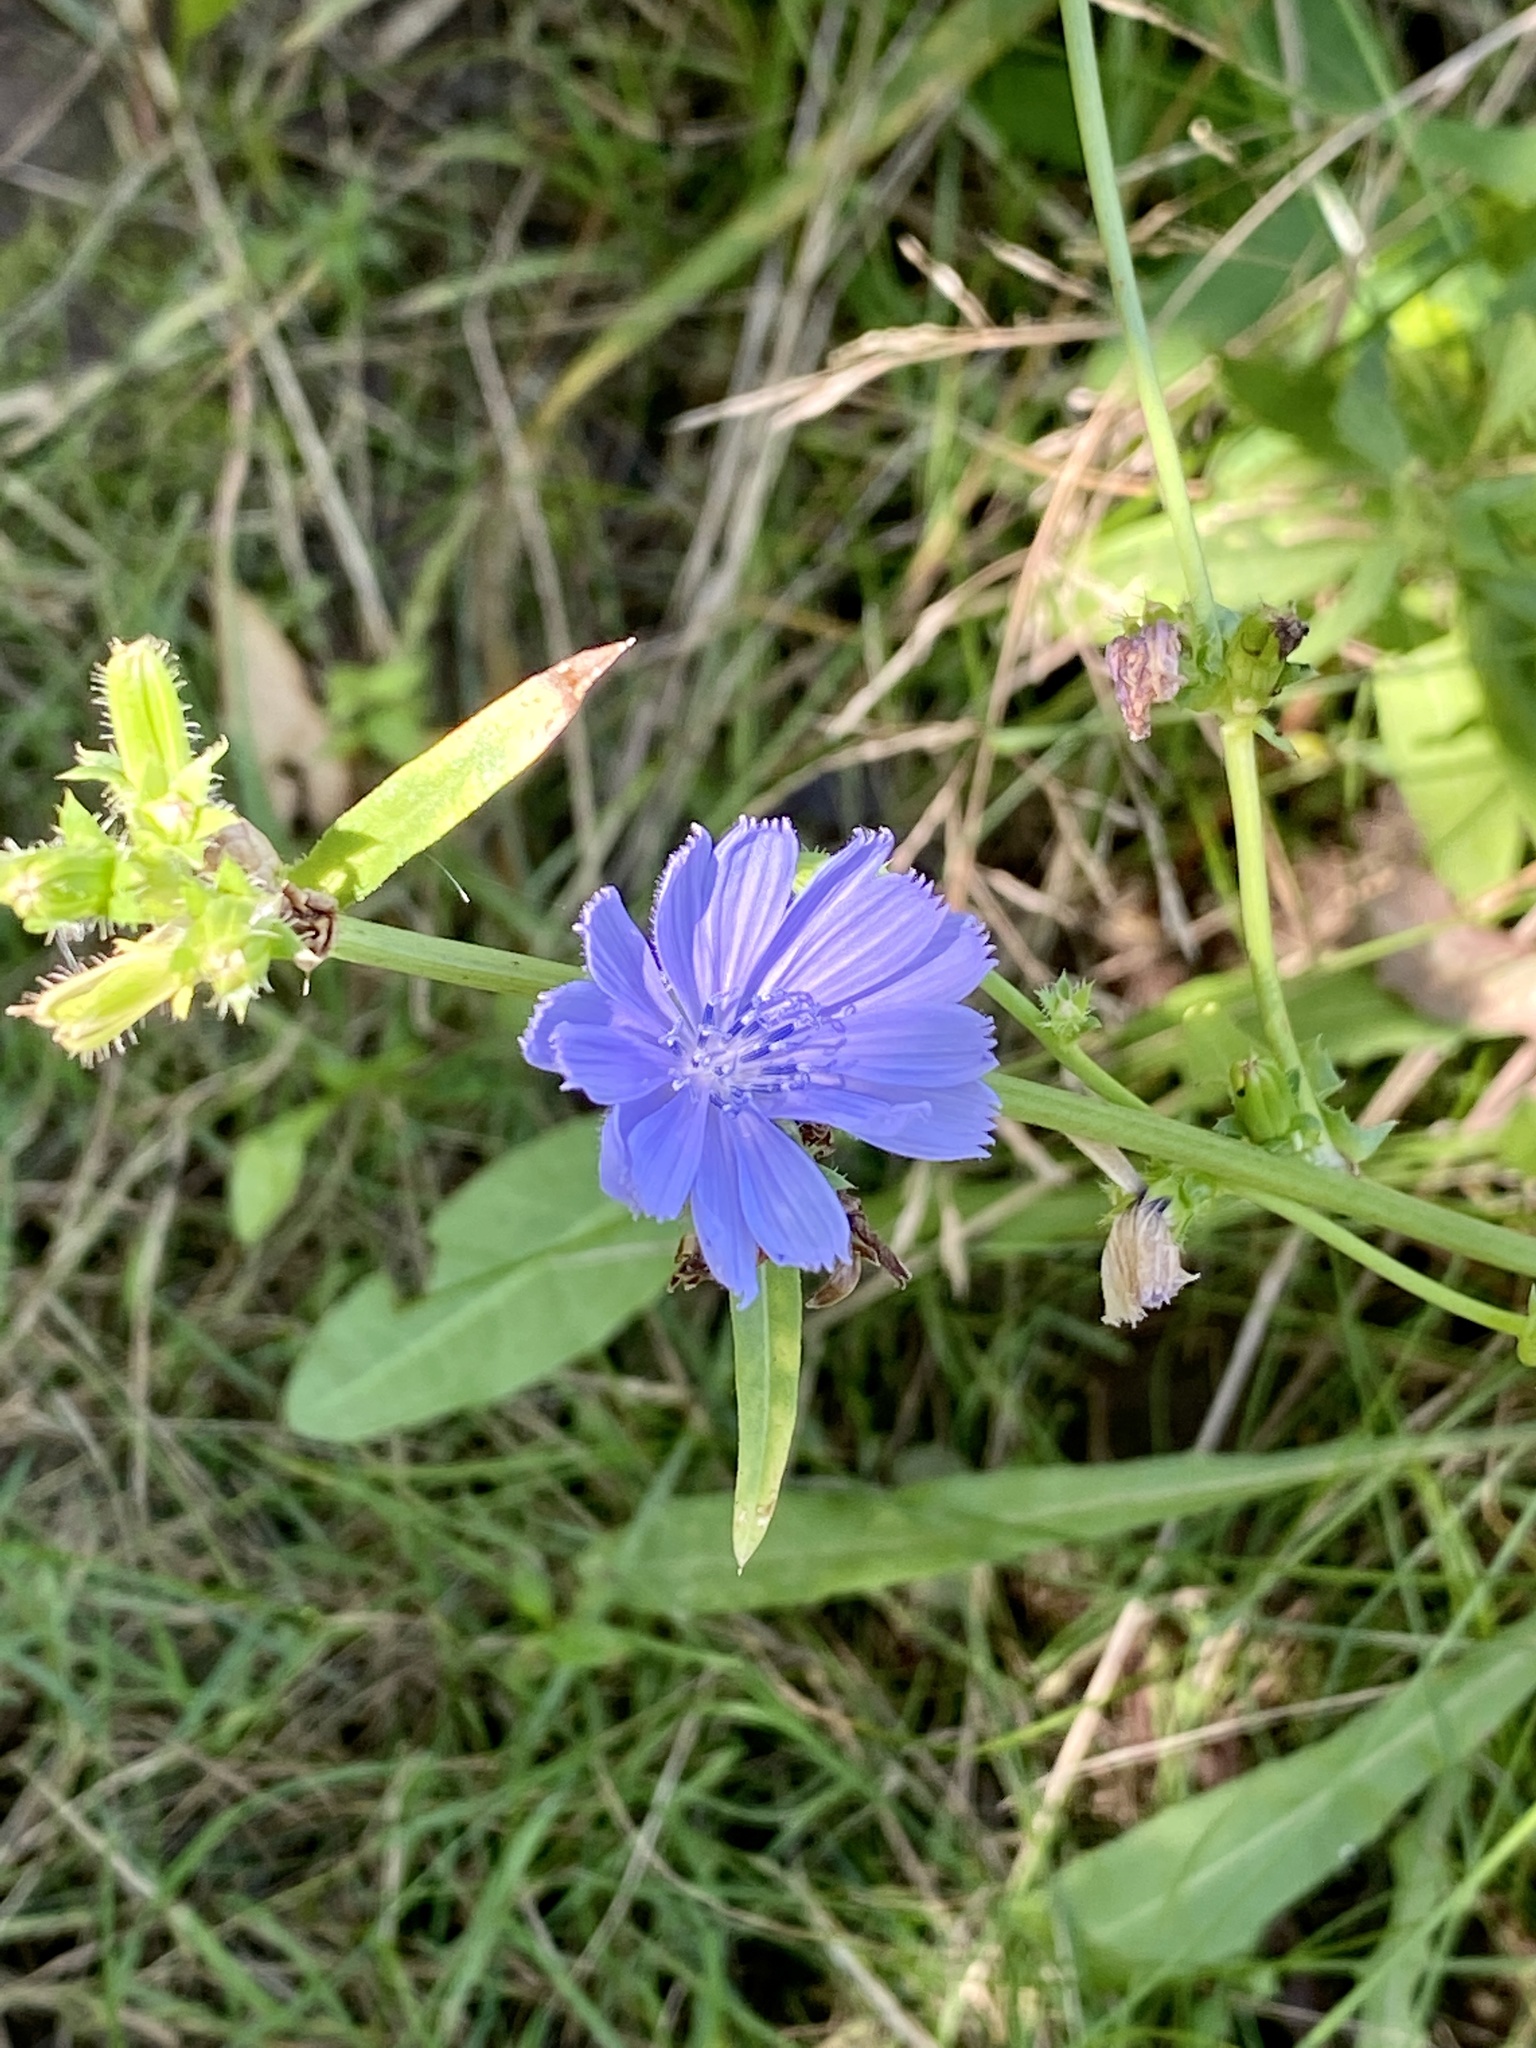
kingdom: Plantae
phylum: Tracheophyta
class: Magnoliopsida
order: Asterales
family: Asteraceae
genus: Cichorium
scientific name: Cichorium intybus
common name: Chicory
